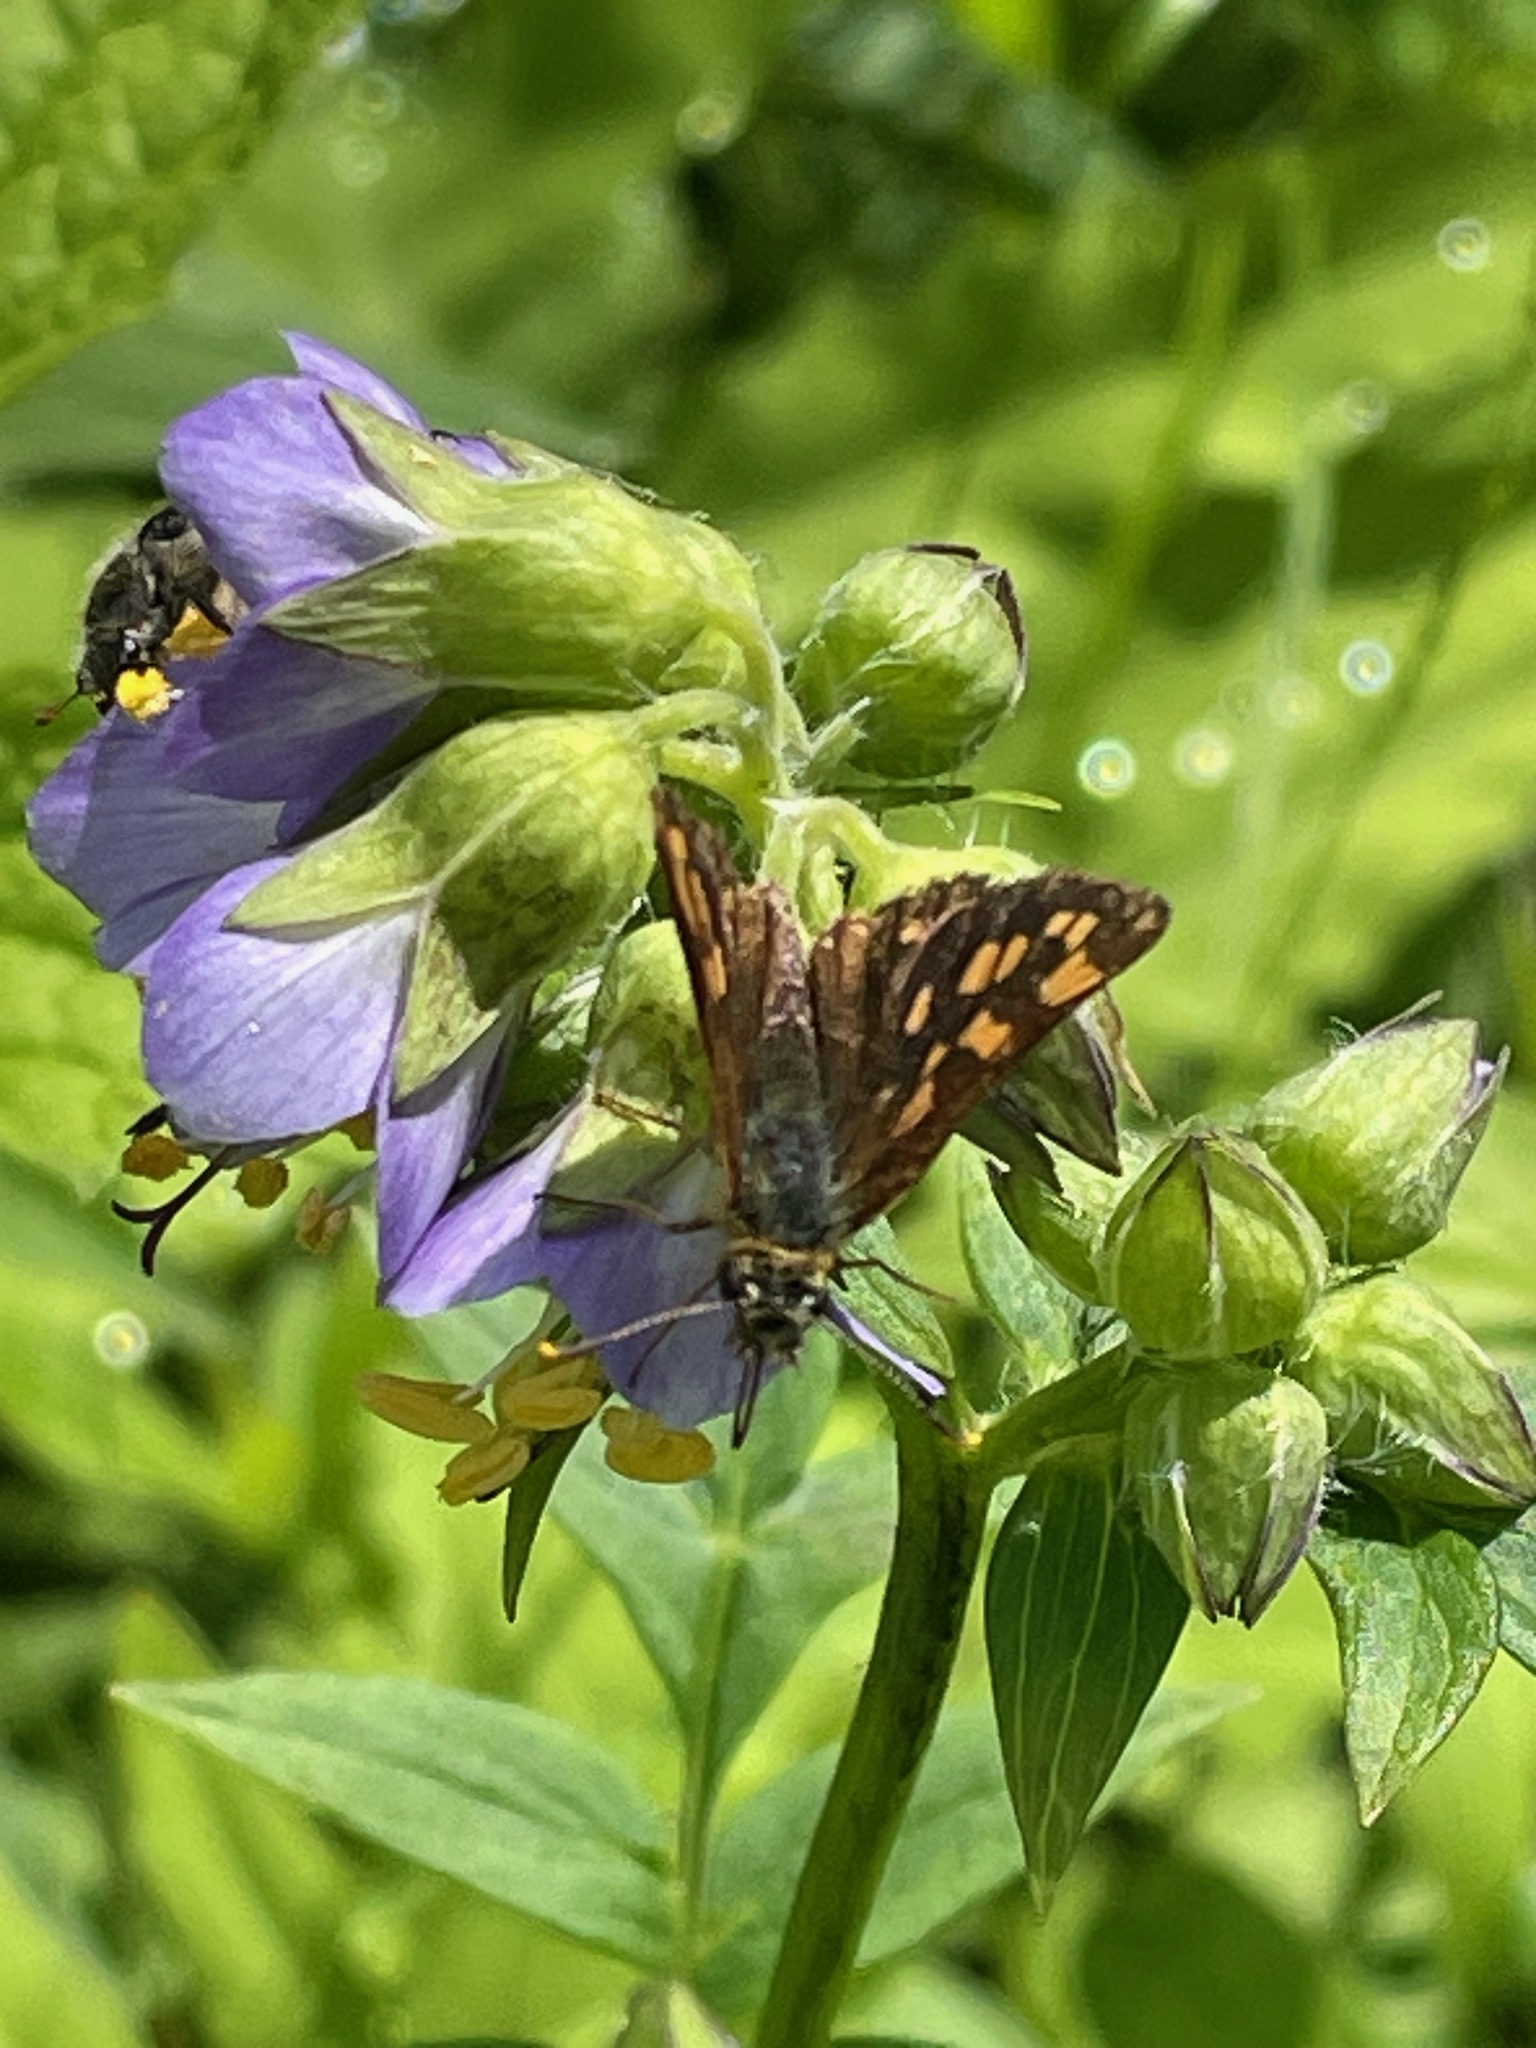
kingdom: Animalia
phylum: Arthropoda
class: Insecta
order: Lepidoptera
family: Hesperiidae
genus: Carterocephalus
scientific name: Carterocephalus mandan
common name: Arctic skipperling
